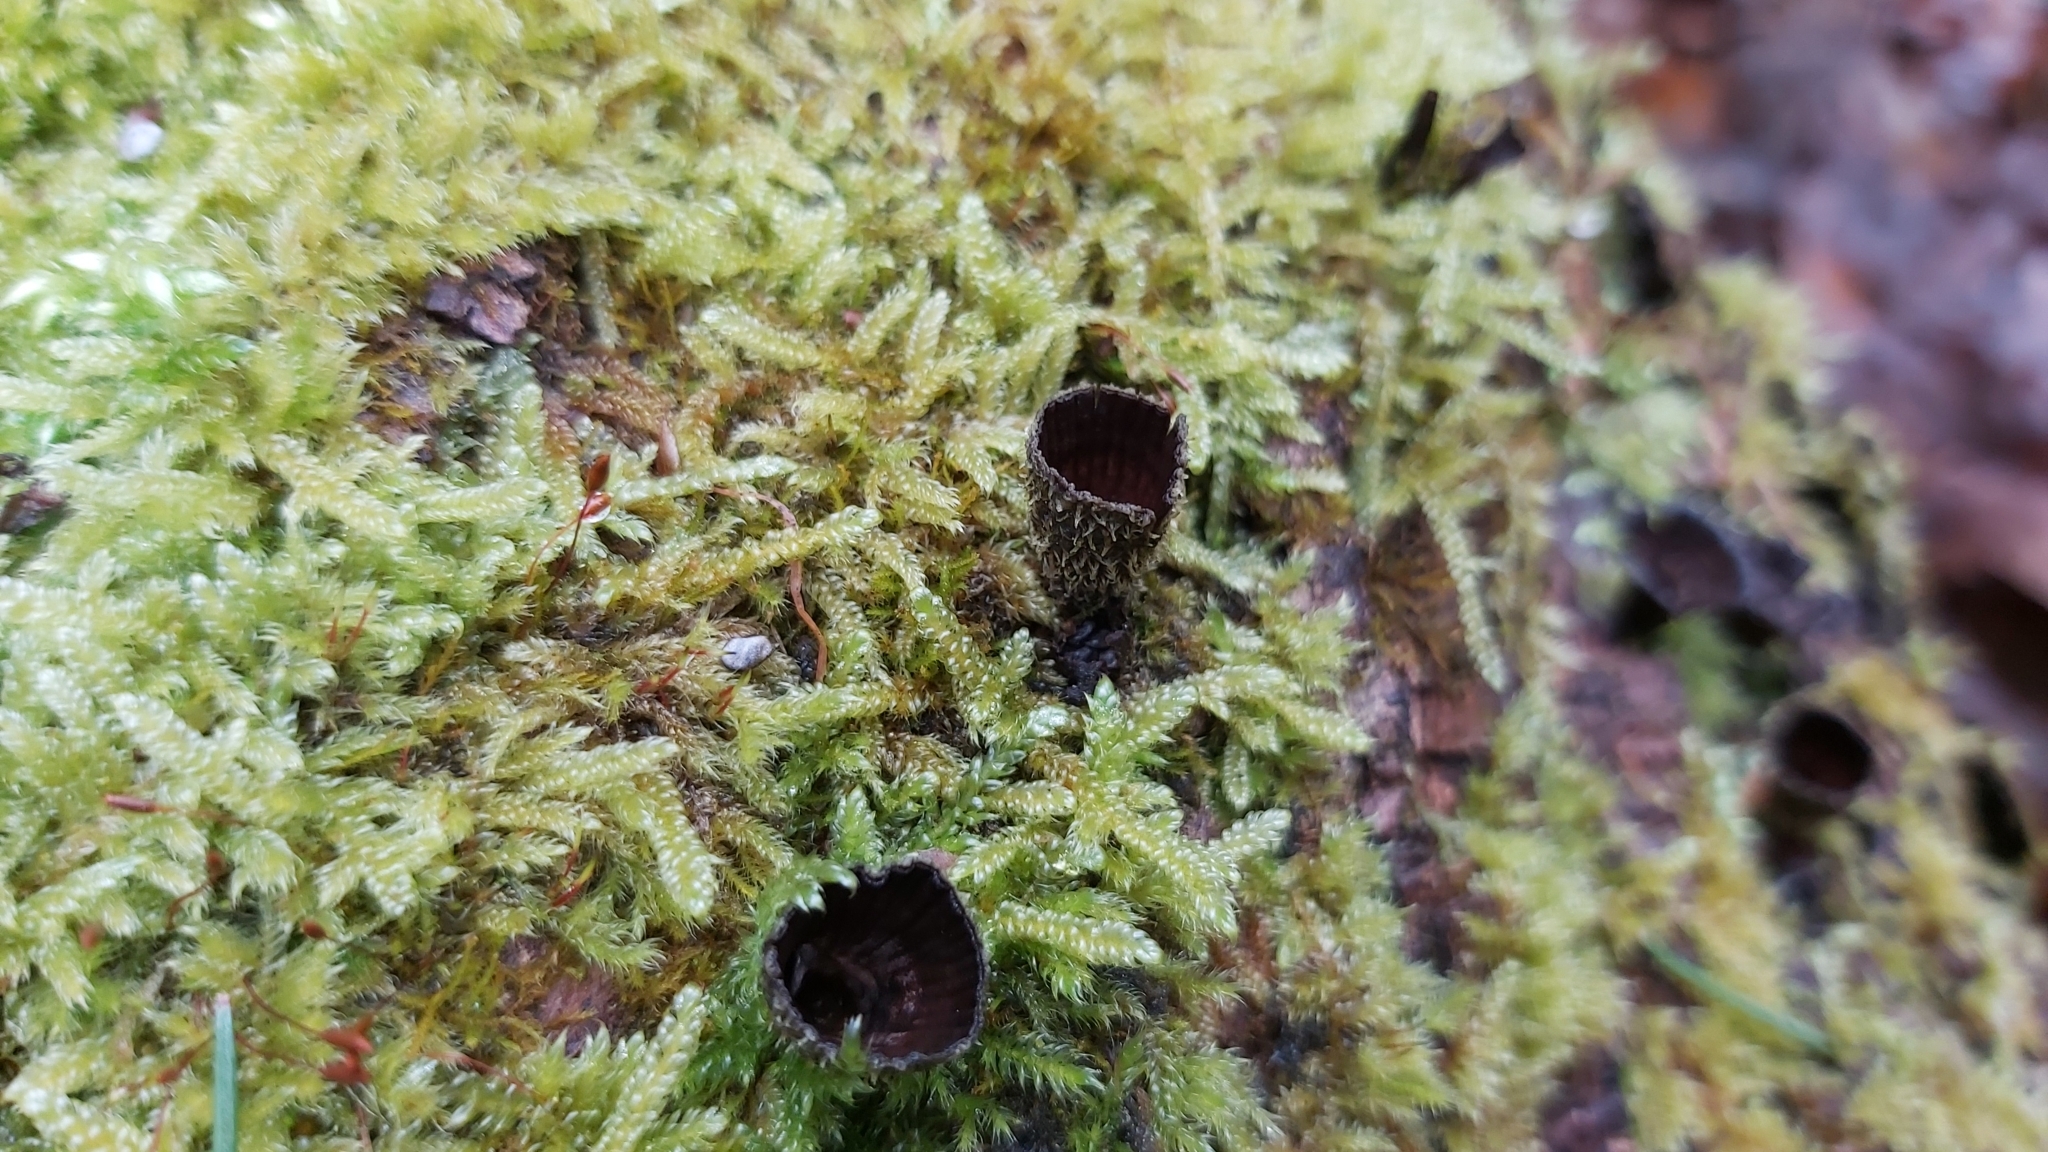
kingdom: Fungi
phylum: Basidiomycota
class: Agaricomycetes
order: Agaricales
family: Agaricaceae
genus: Cyathus
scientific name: Cyathus striatus
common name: Fluted bird's nest
